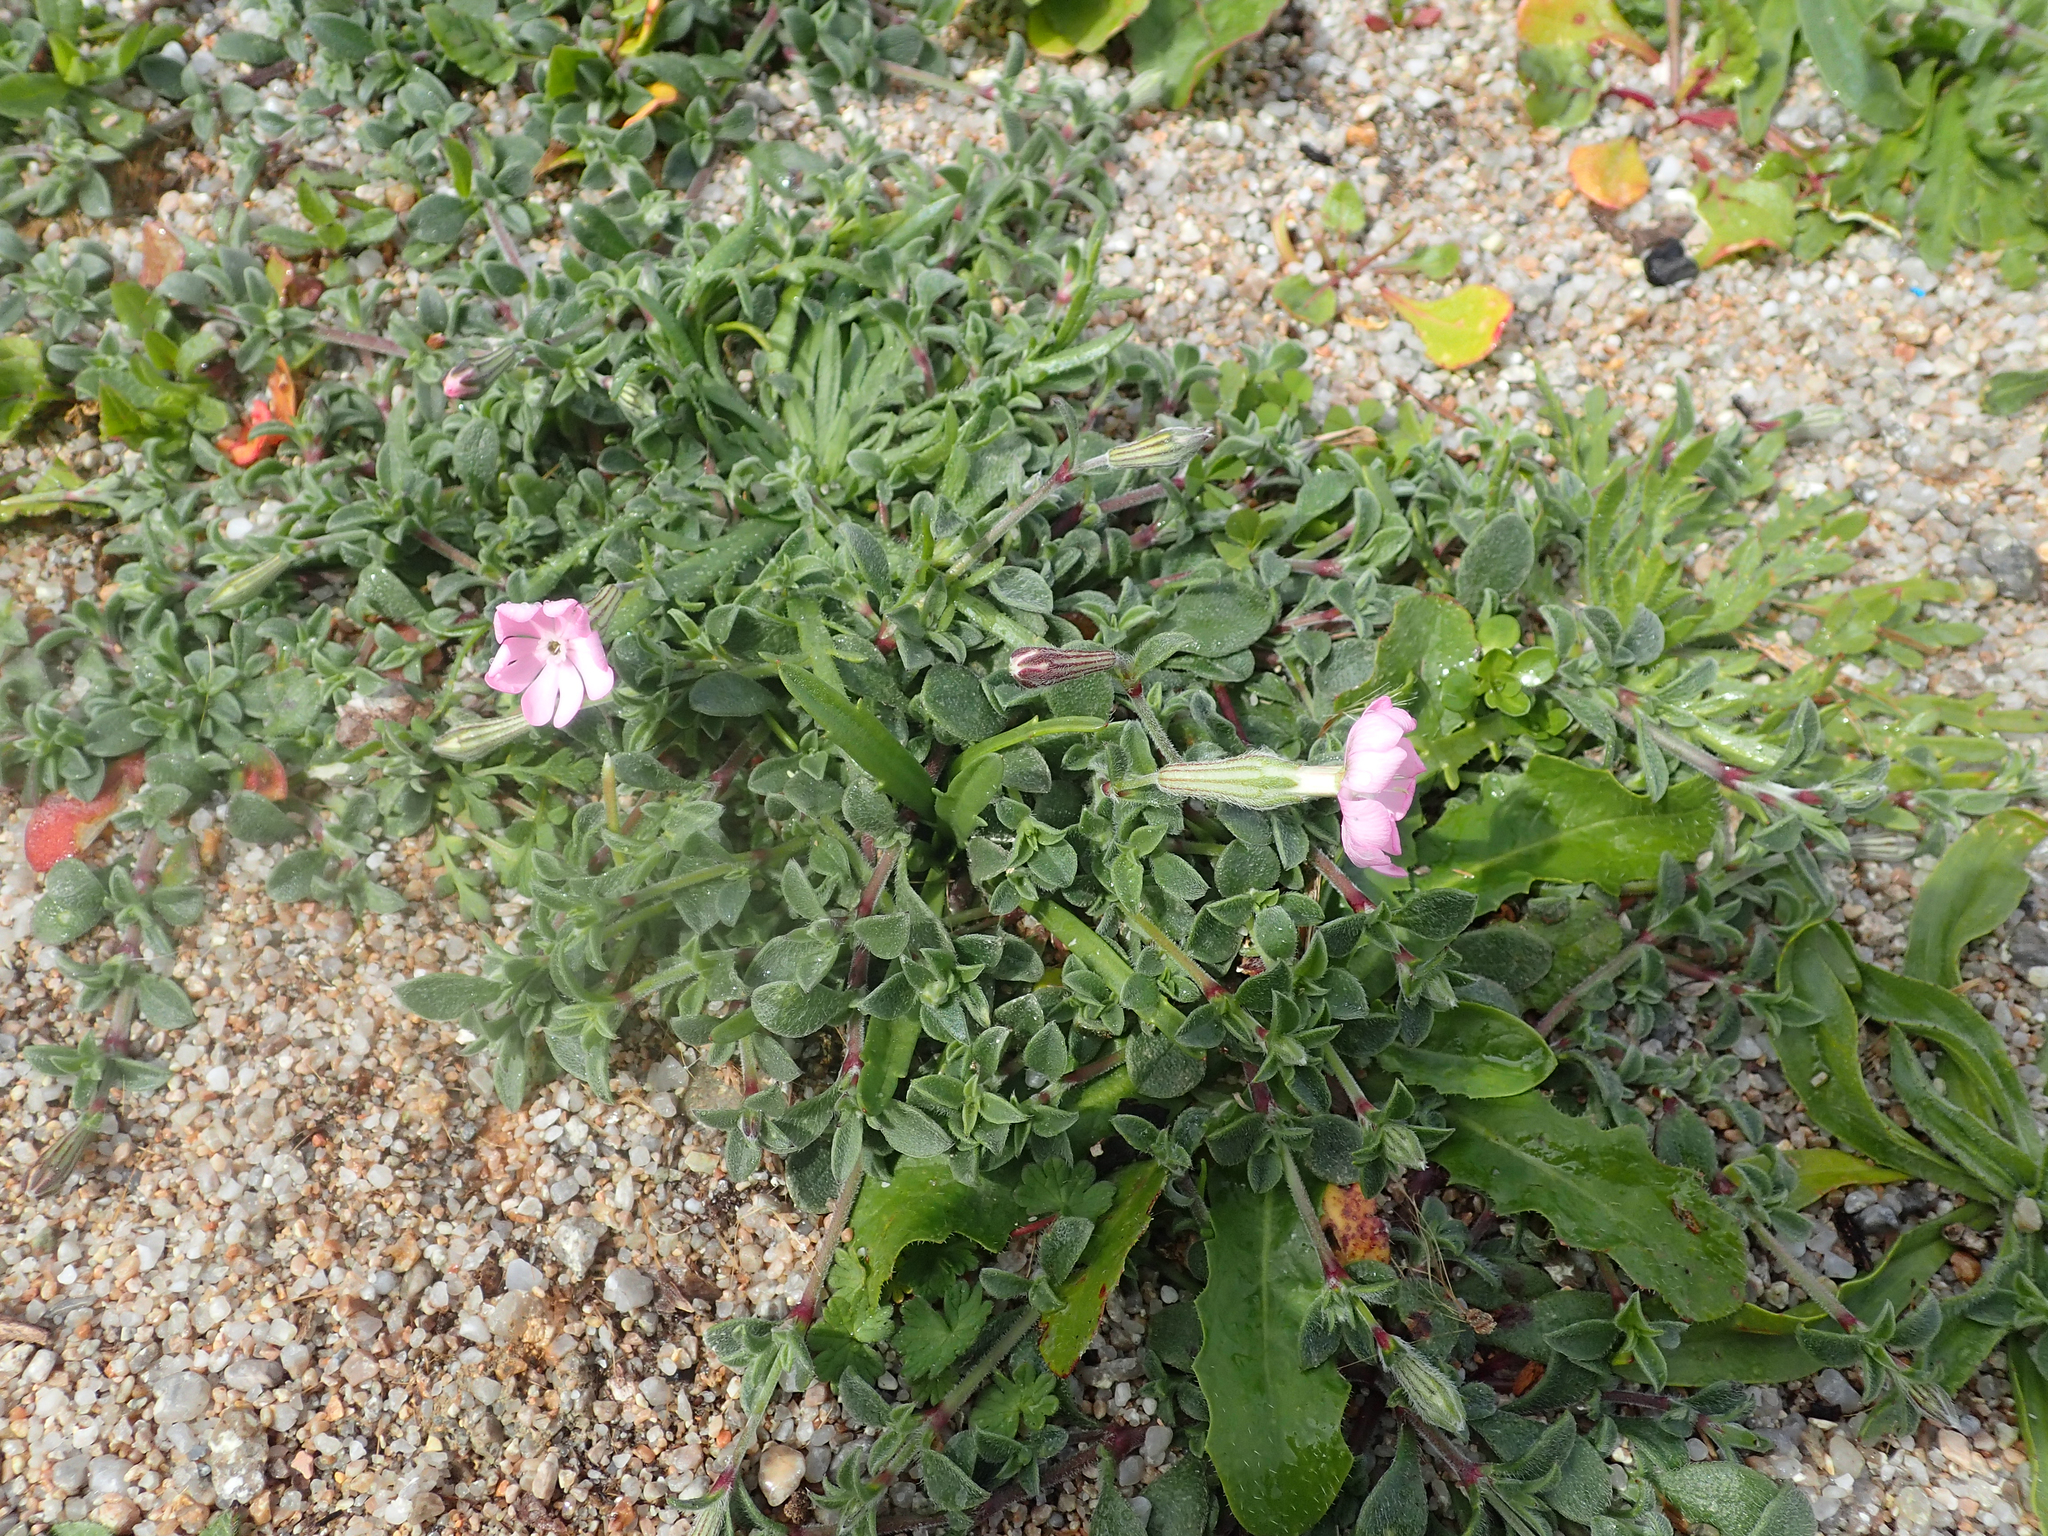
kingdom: Plantae
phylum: Tracheophyta
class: Magnoliopsida
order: Caryophyllales
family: Caryophyllaceae
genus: Silene
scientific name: Silene sericea
